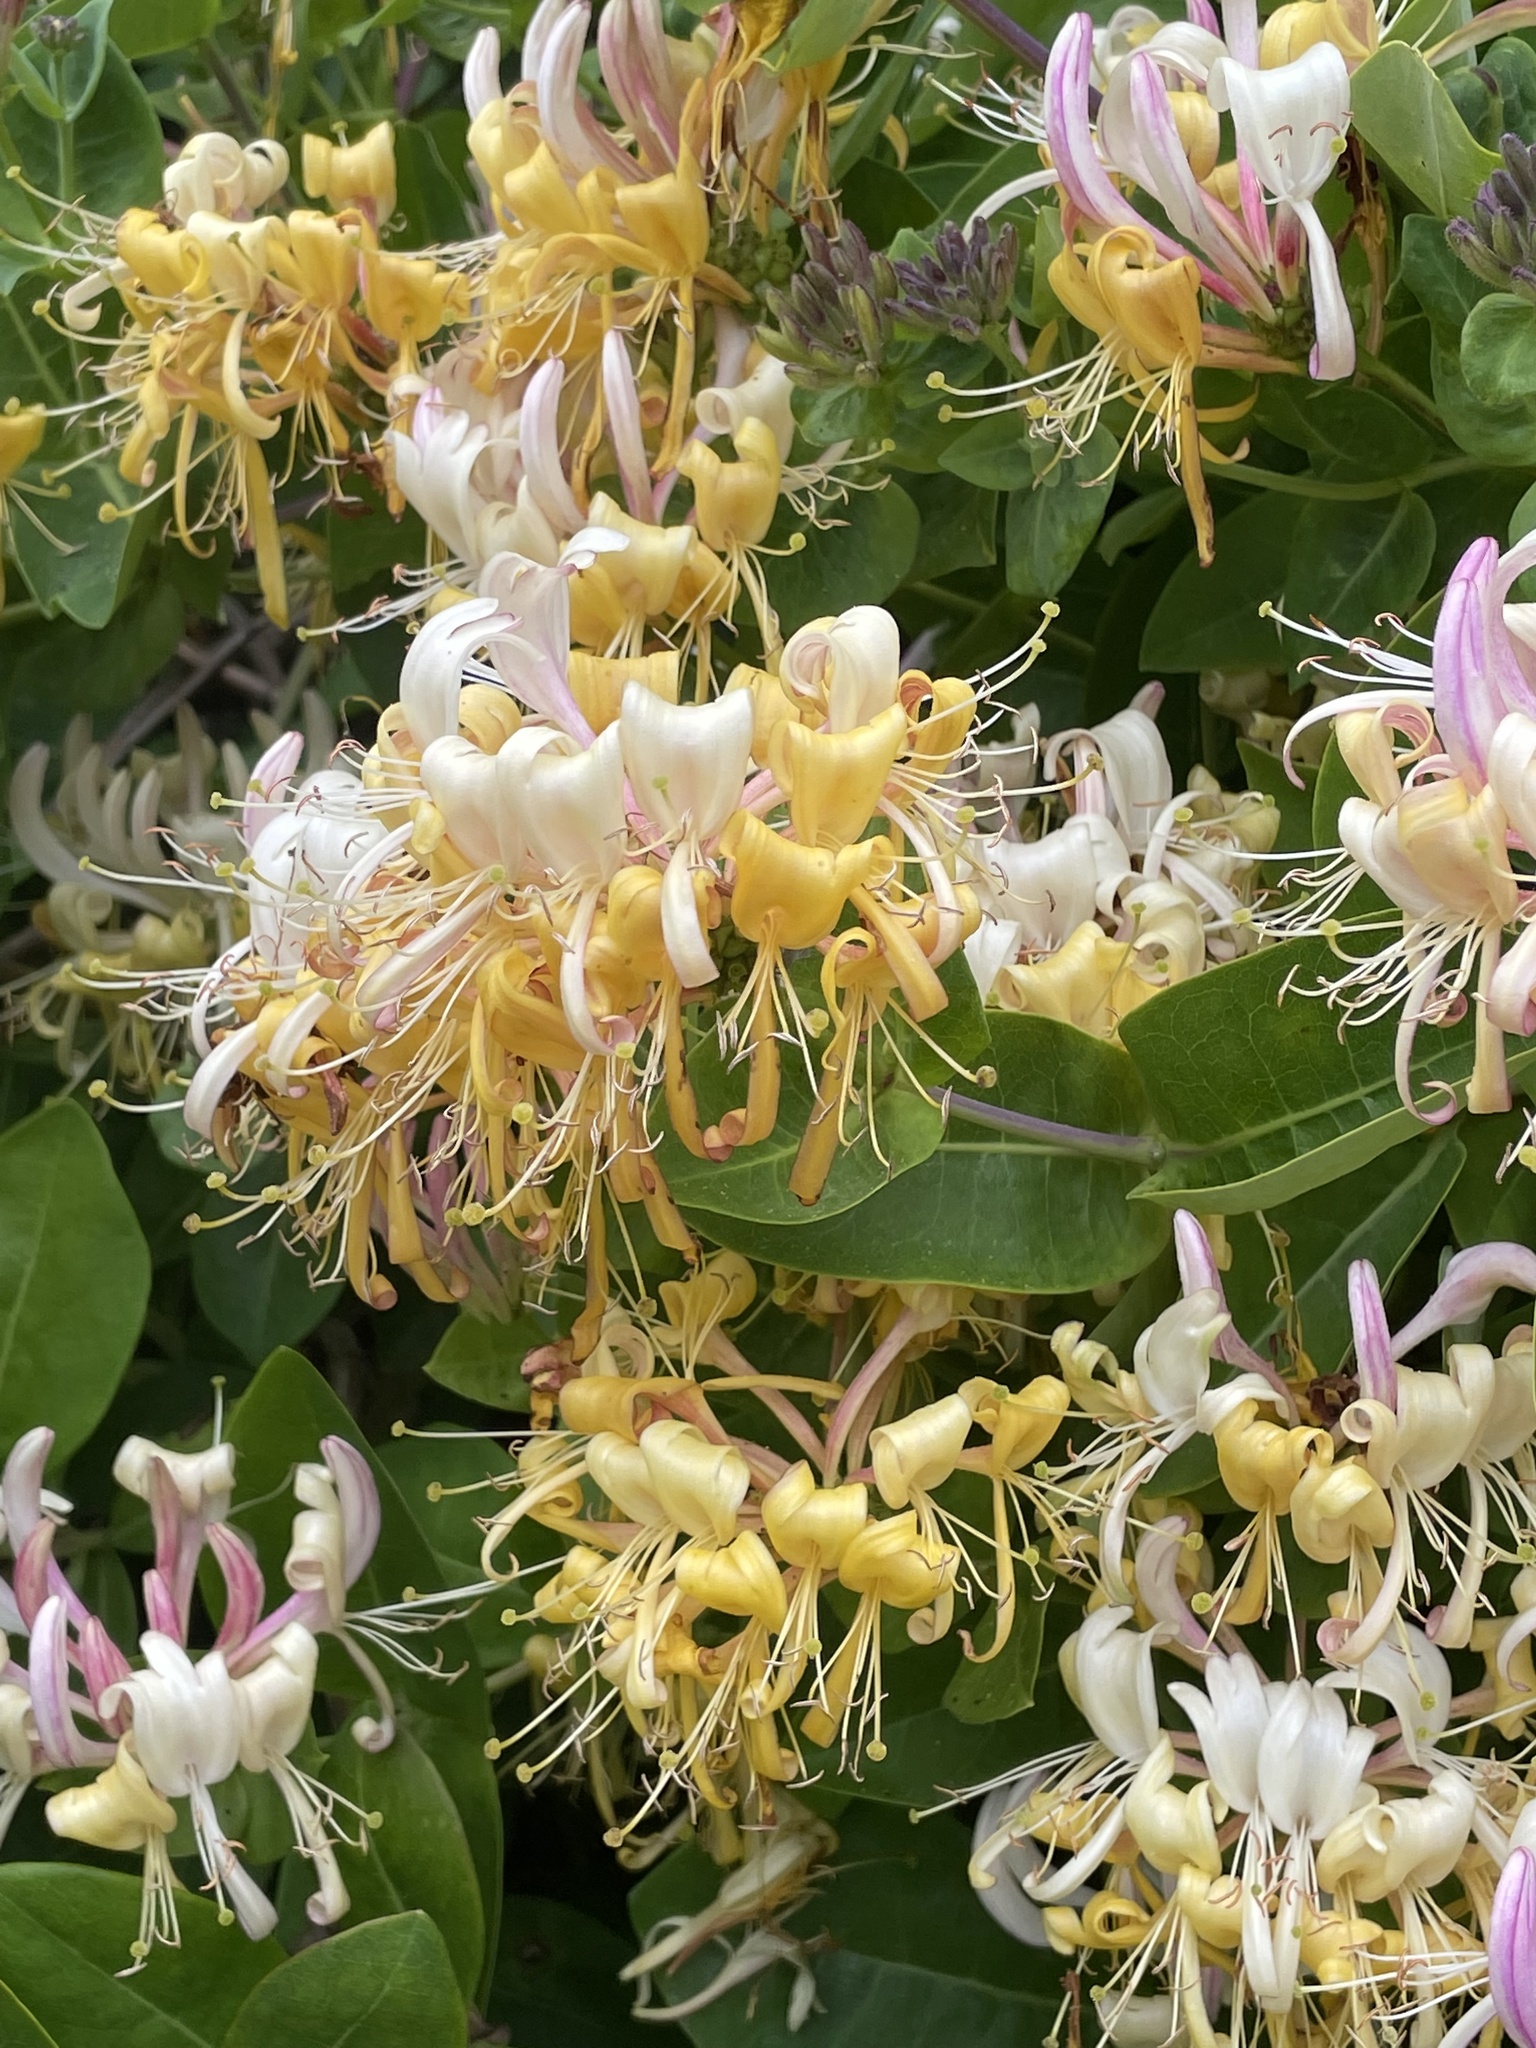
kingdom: Plantae
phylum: Tracheophyta
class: Magnoliopsida
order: Dipsacales
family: Caprifoliaceae
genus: Lonicera
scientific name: Lonicera periclymenum
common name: European honeysuckle
